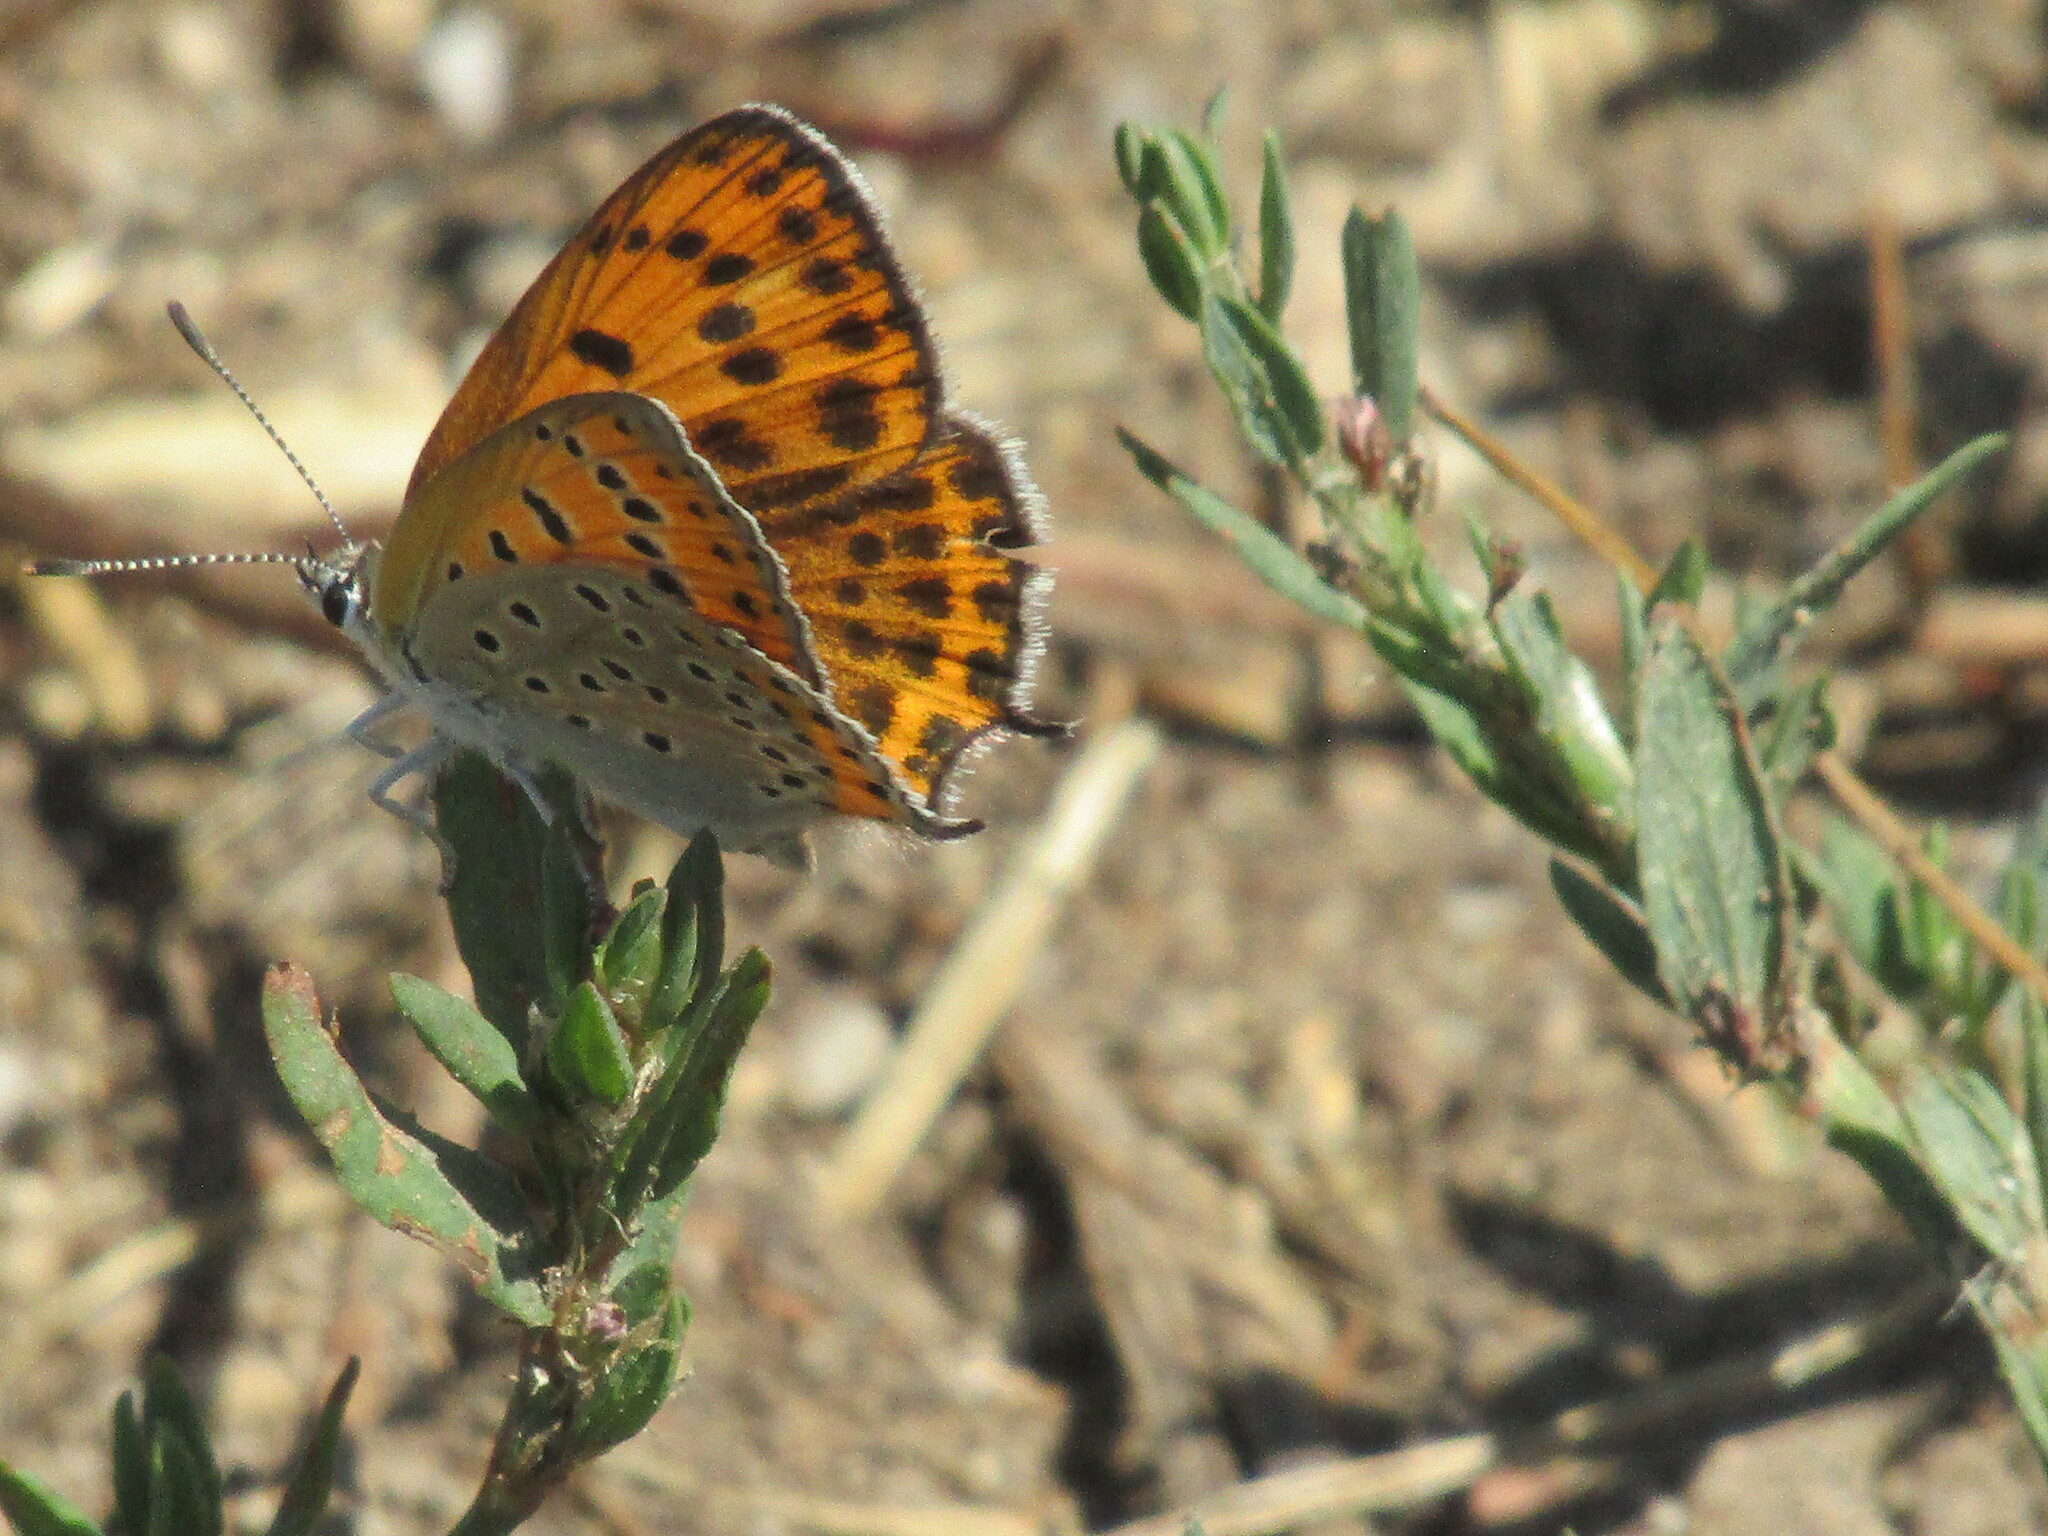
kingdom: Animalia
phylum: Arthropoda
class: Insecta
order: Lepidoptera
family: Lycaenidae
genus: Thersamonia
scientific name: Thersamonia thersamon
